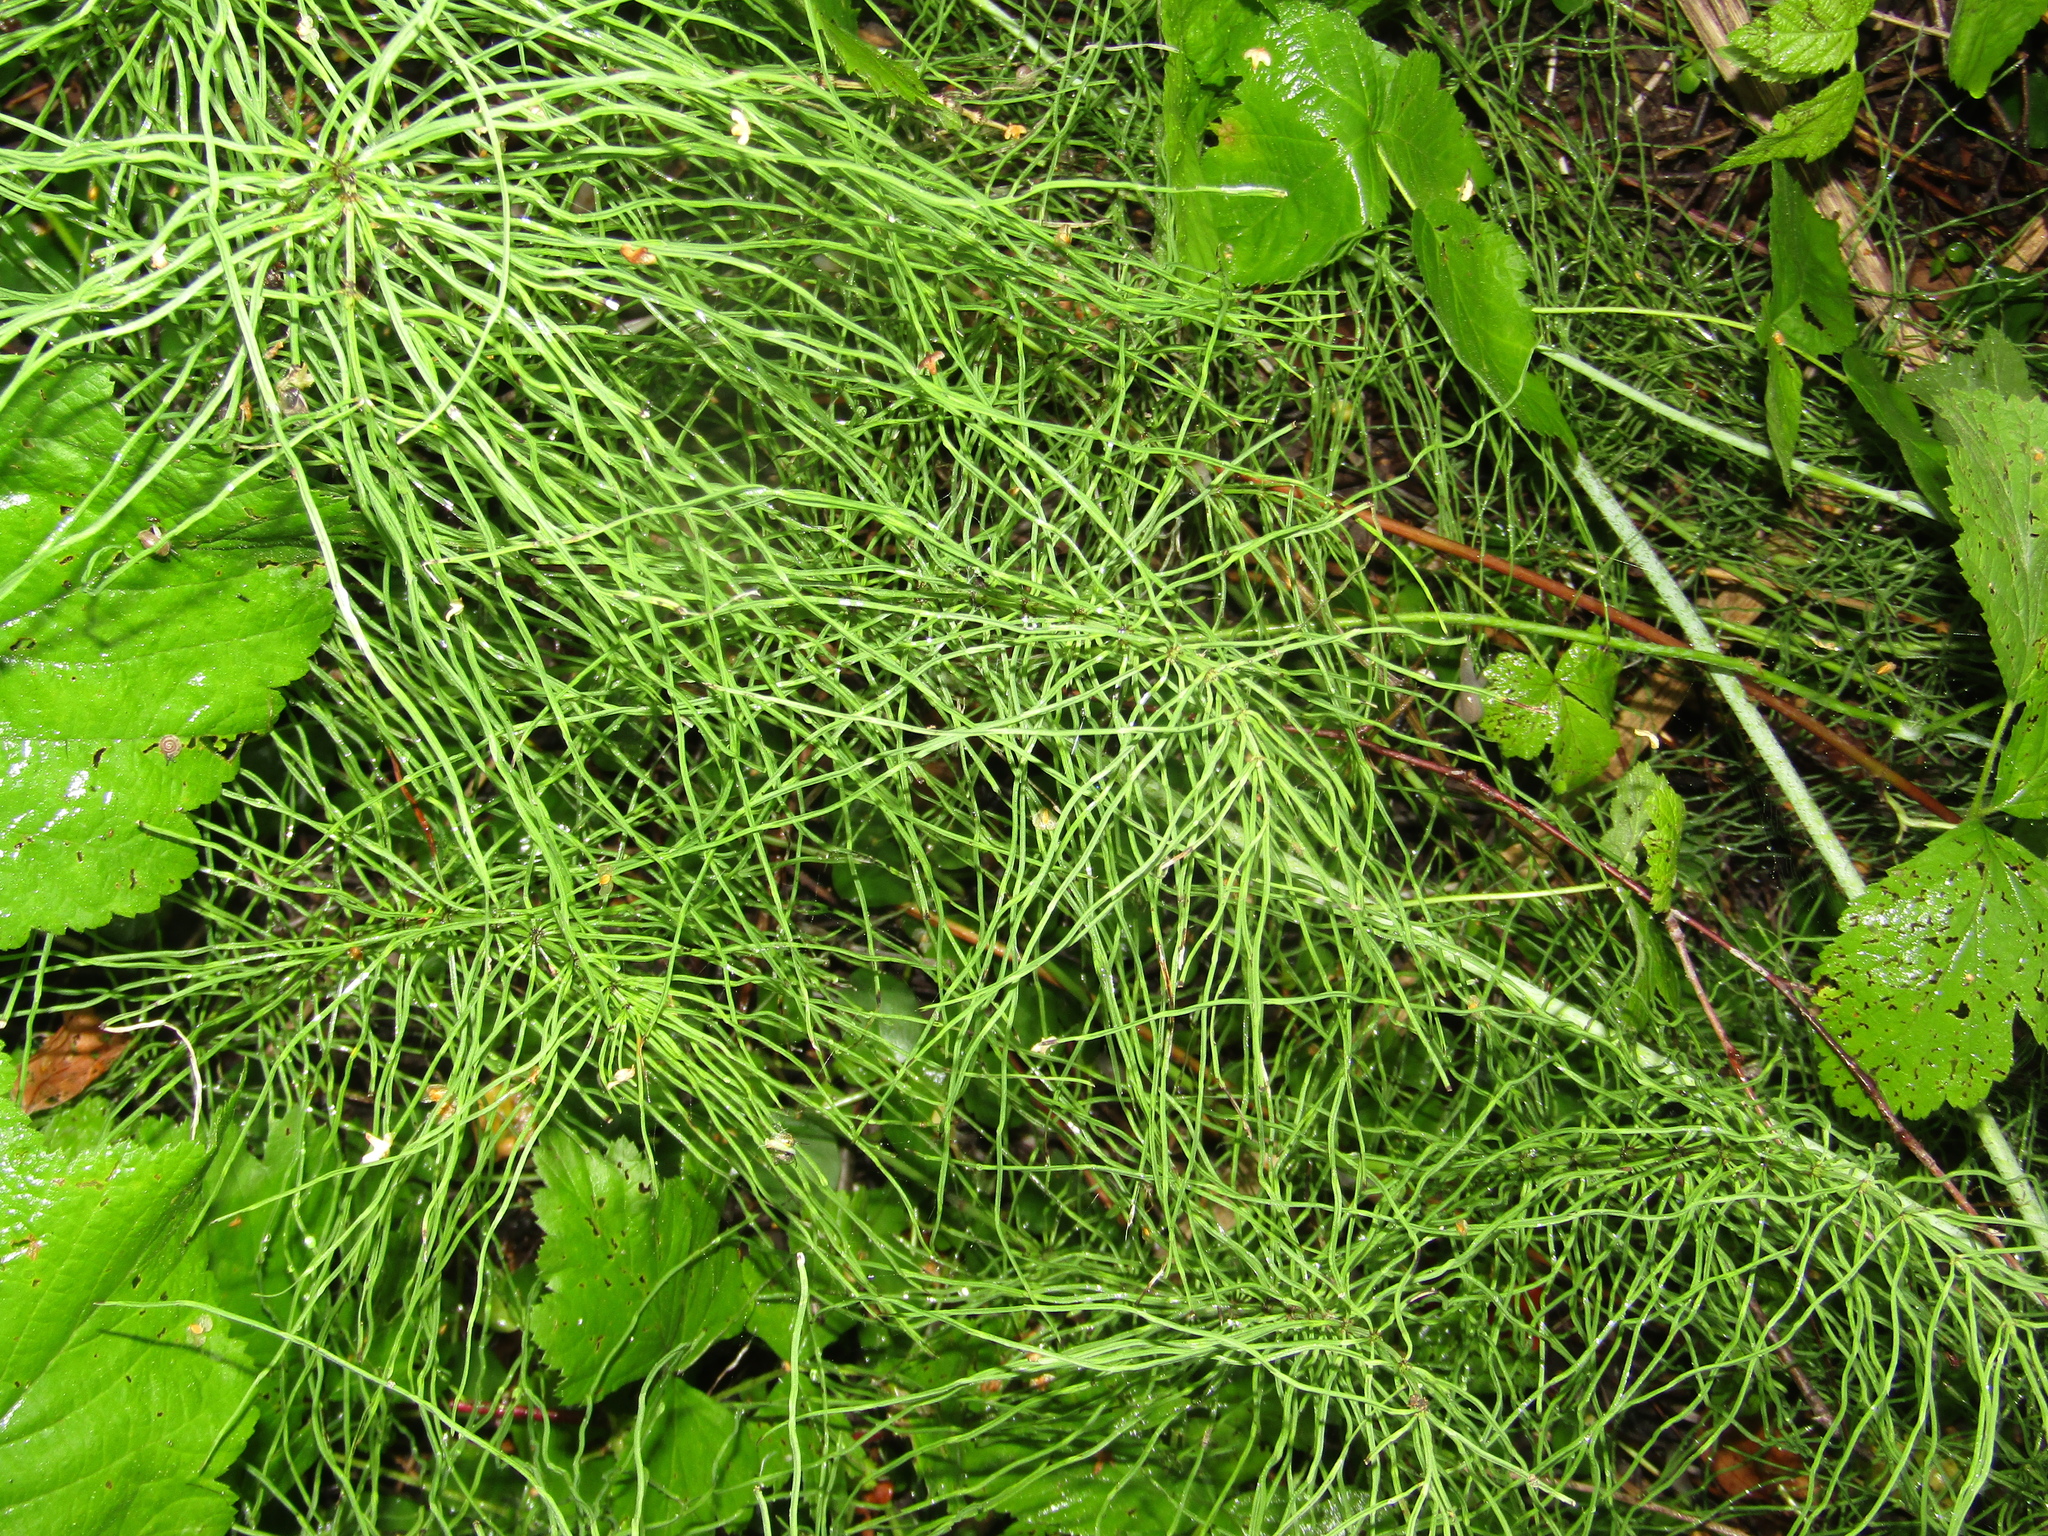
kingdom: Plantae
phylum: Tracheophyta
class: Polypodiopsida
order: Equisetales
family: Equisetaceae
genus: Equisetum
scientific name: Equisetum pratense
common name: Meadow horsetail
